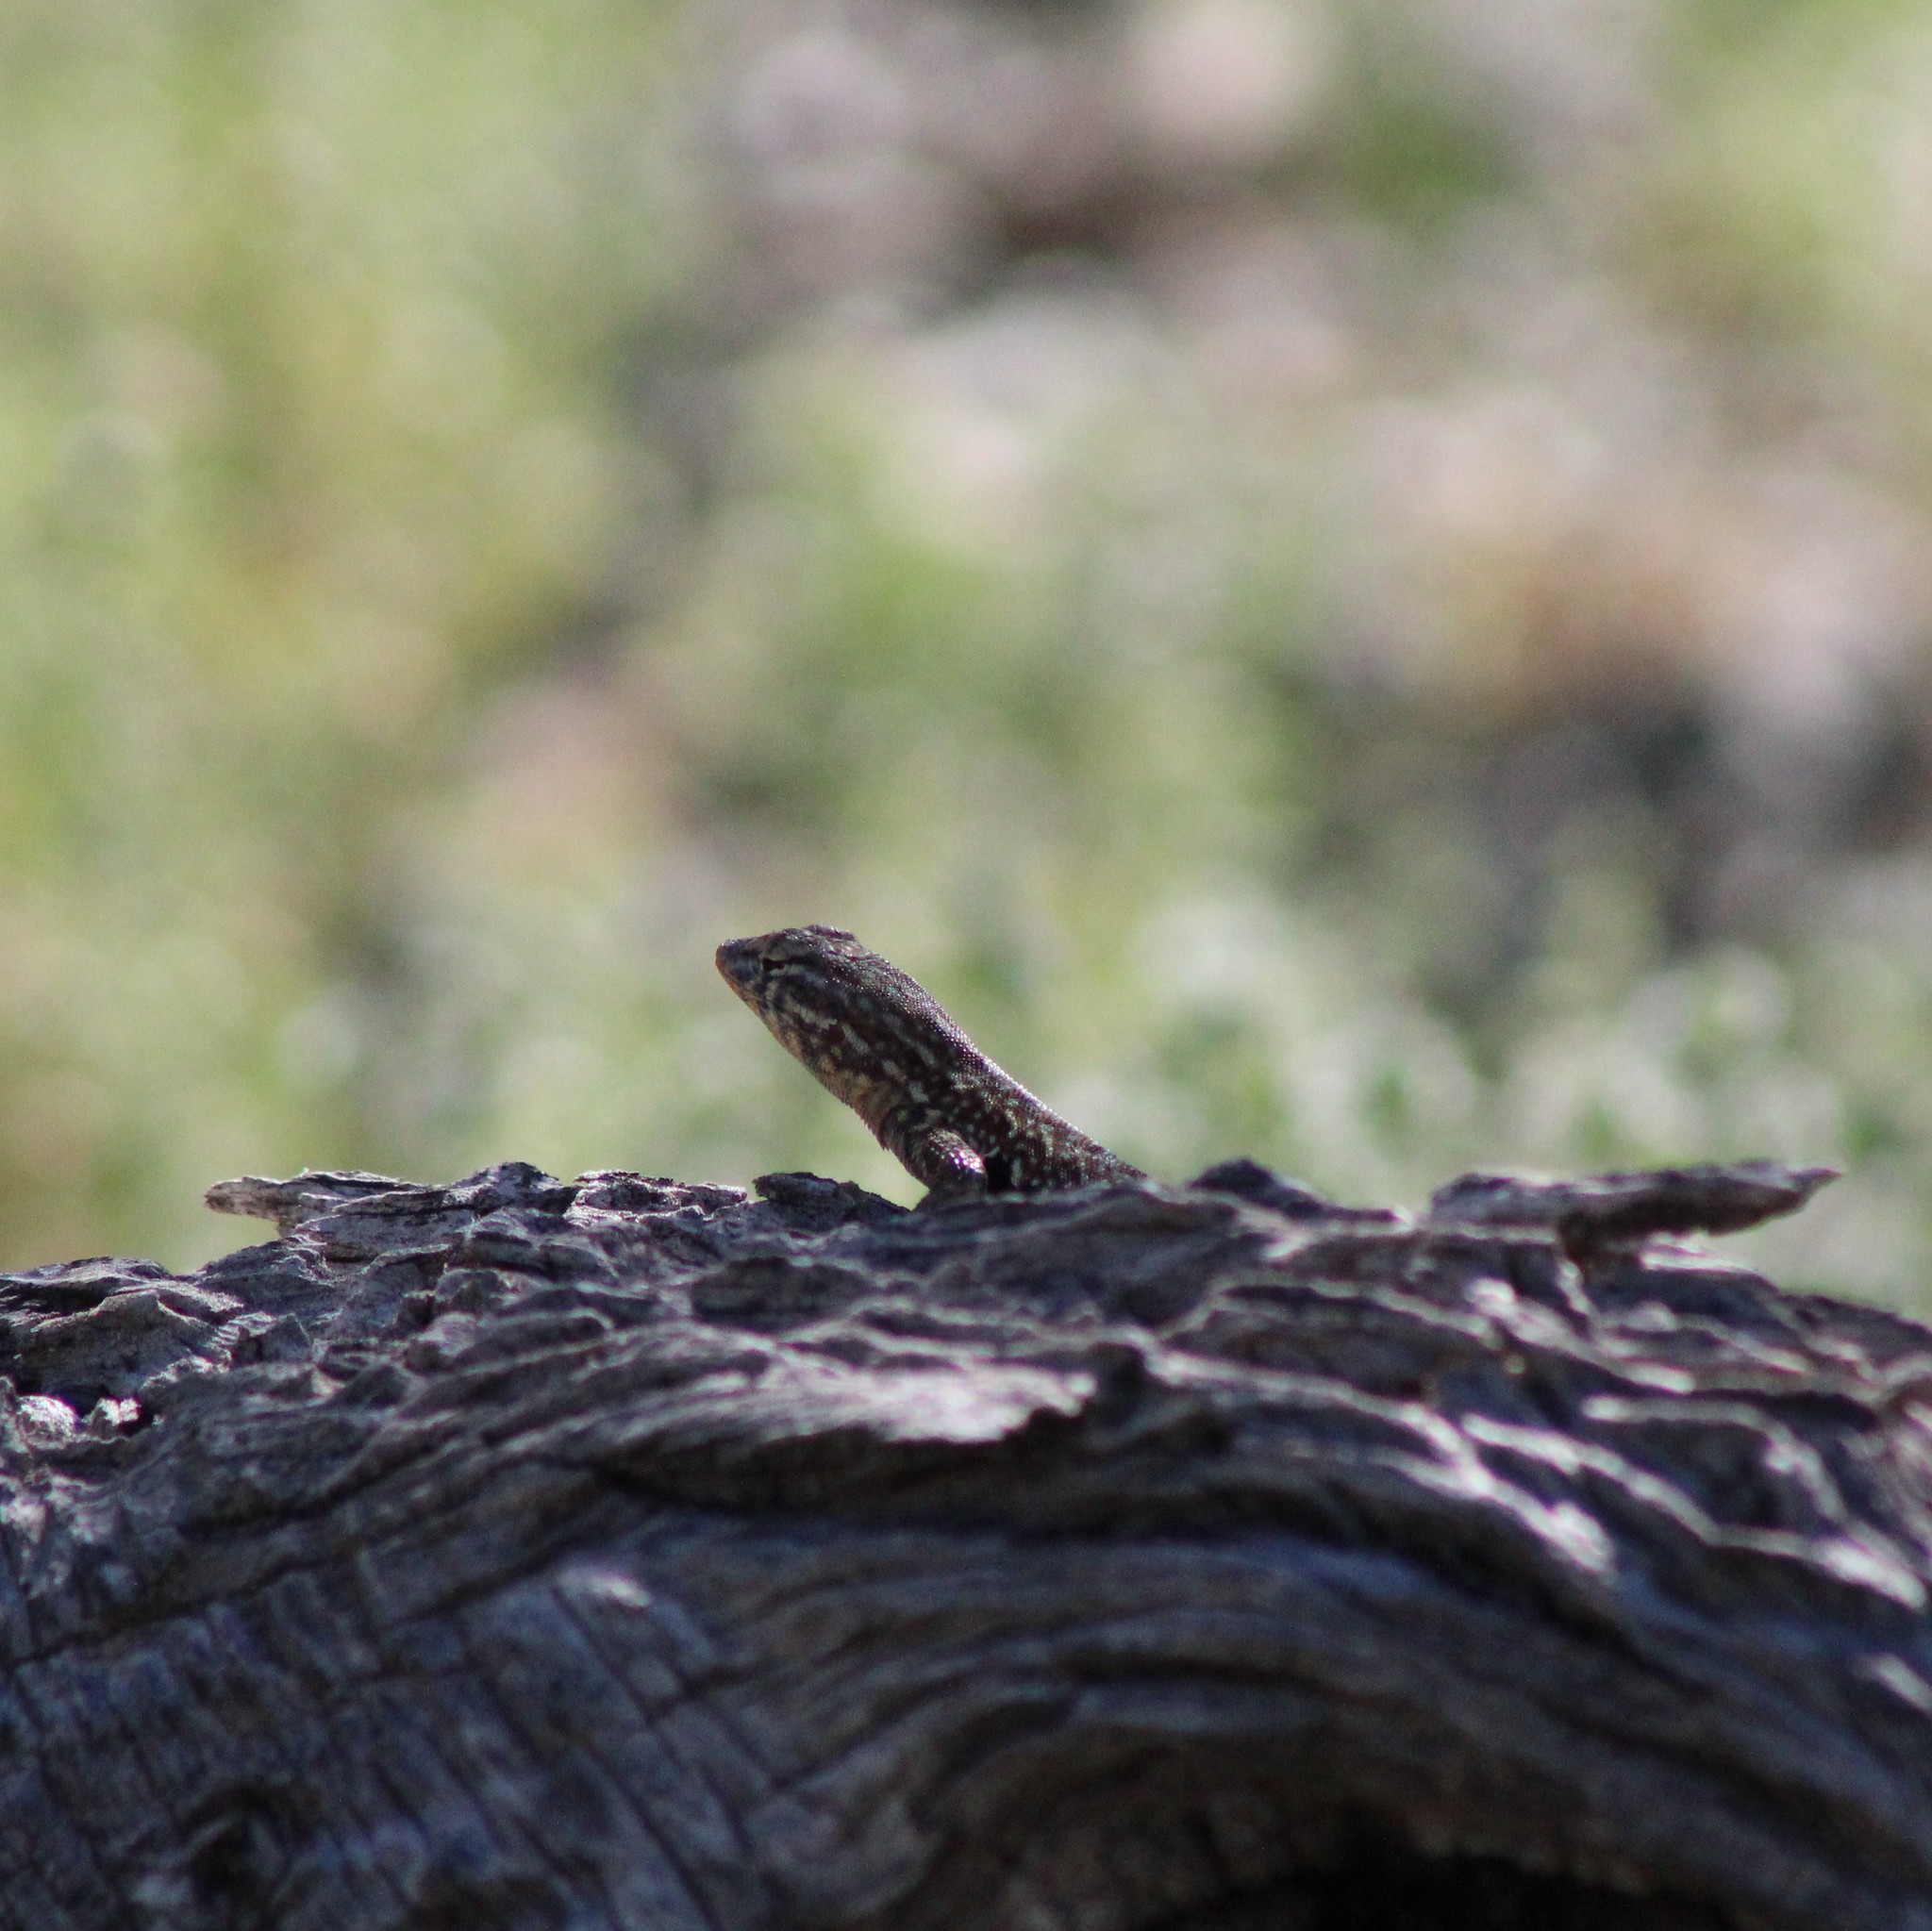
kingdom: Animalia
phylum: Chordata
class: Squamata
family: Phrynosomatidae
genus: Uta
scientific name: Uta stansburiana
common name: Side-blotched lizard
